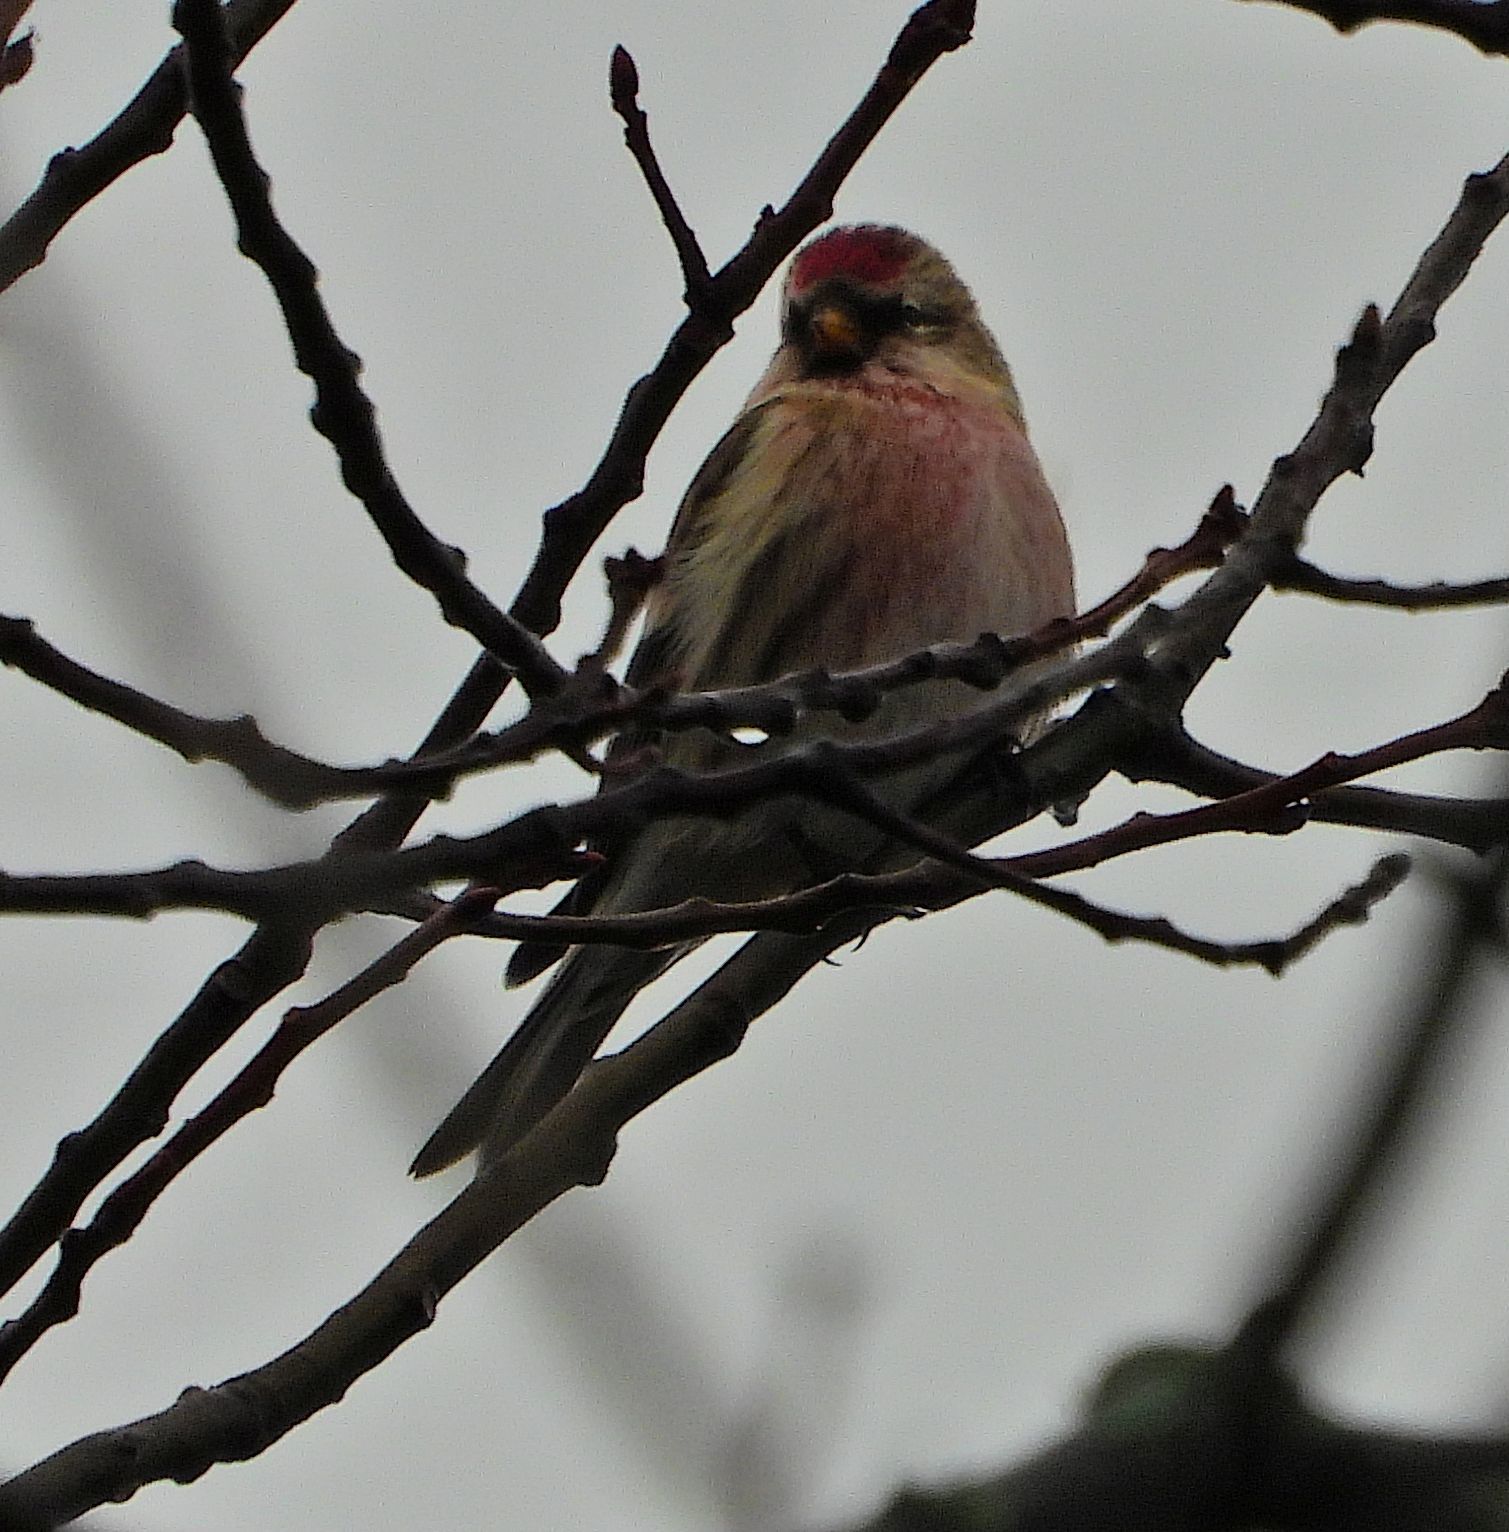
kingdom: Animalia
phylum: Chordata
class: Aves
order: Passeriformes
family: Fringillidae
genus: Acanthis
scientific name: Acanthis flammea
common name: Common redpoll
